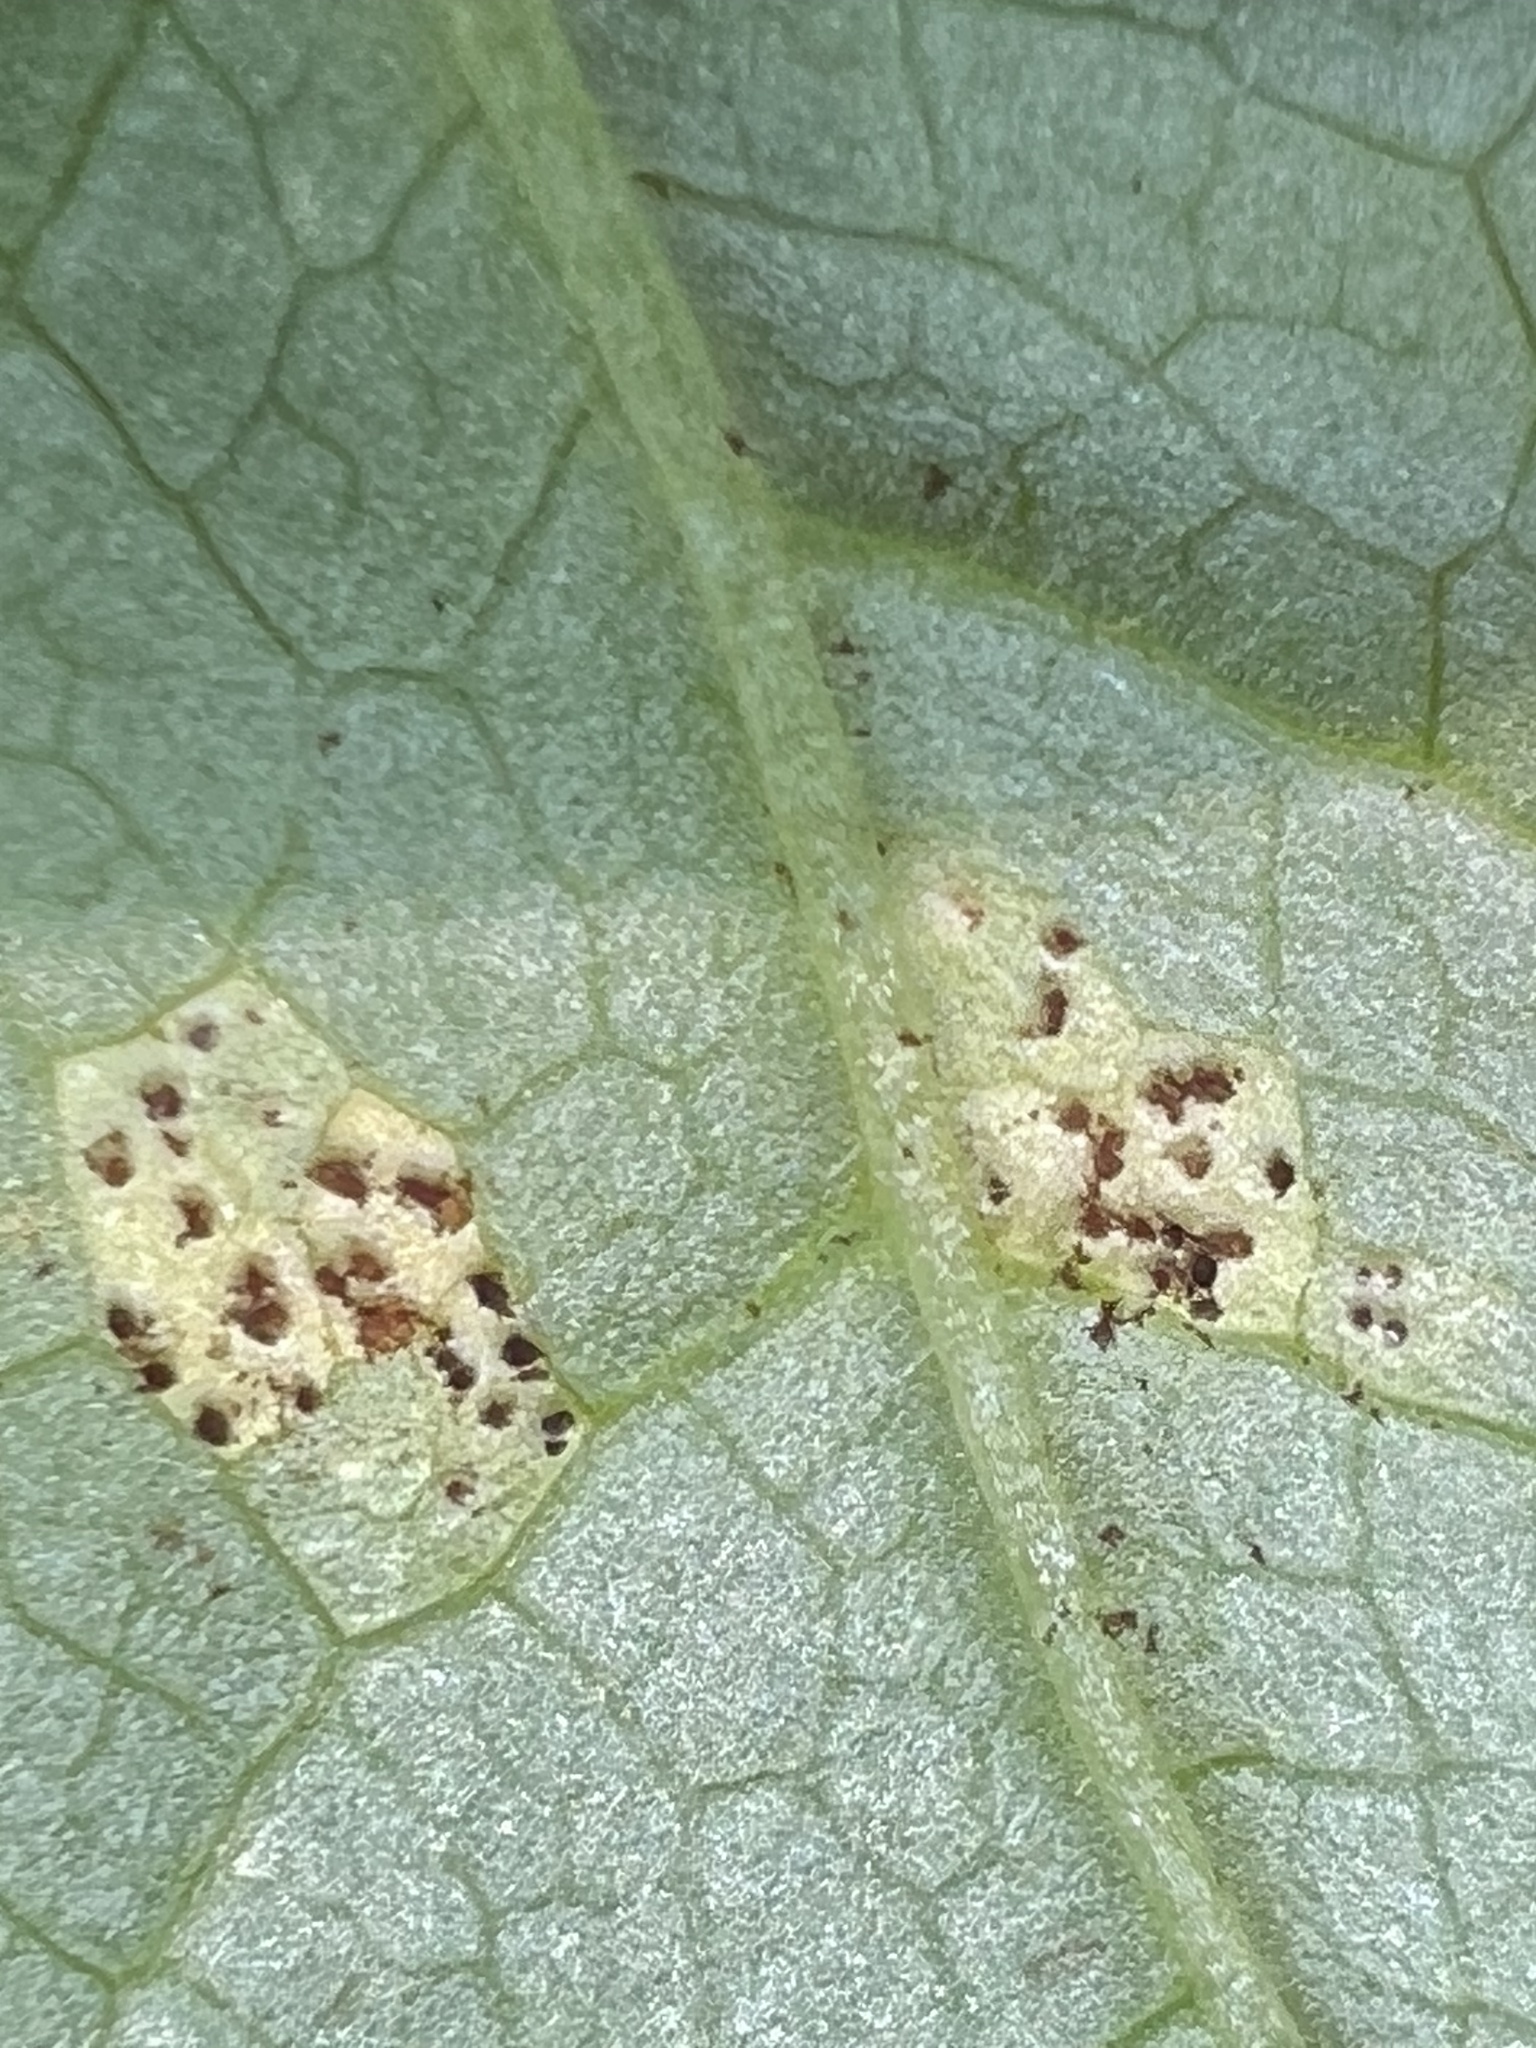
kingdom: Fungi
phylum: Basidiomycota
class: Pucciniomycetes
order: Pucciniales
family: Pucciniaceae
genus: Puccinia
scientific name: Puccinia podophylli
